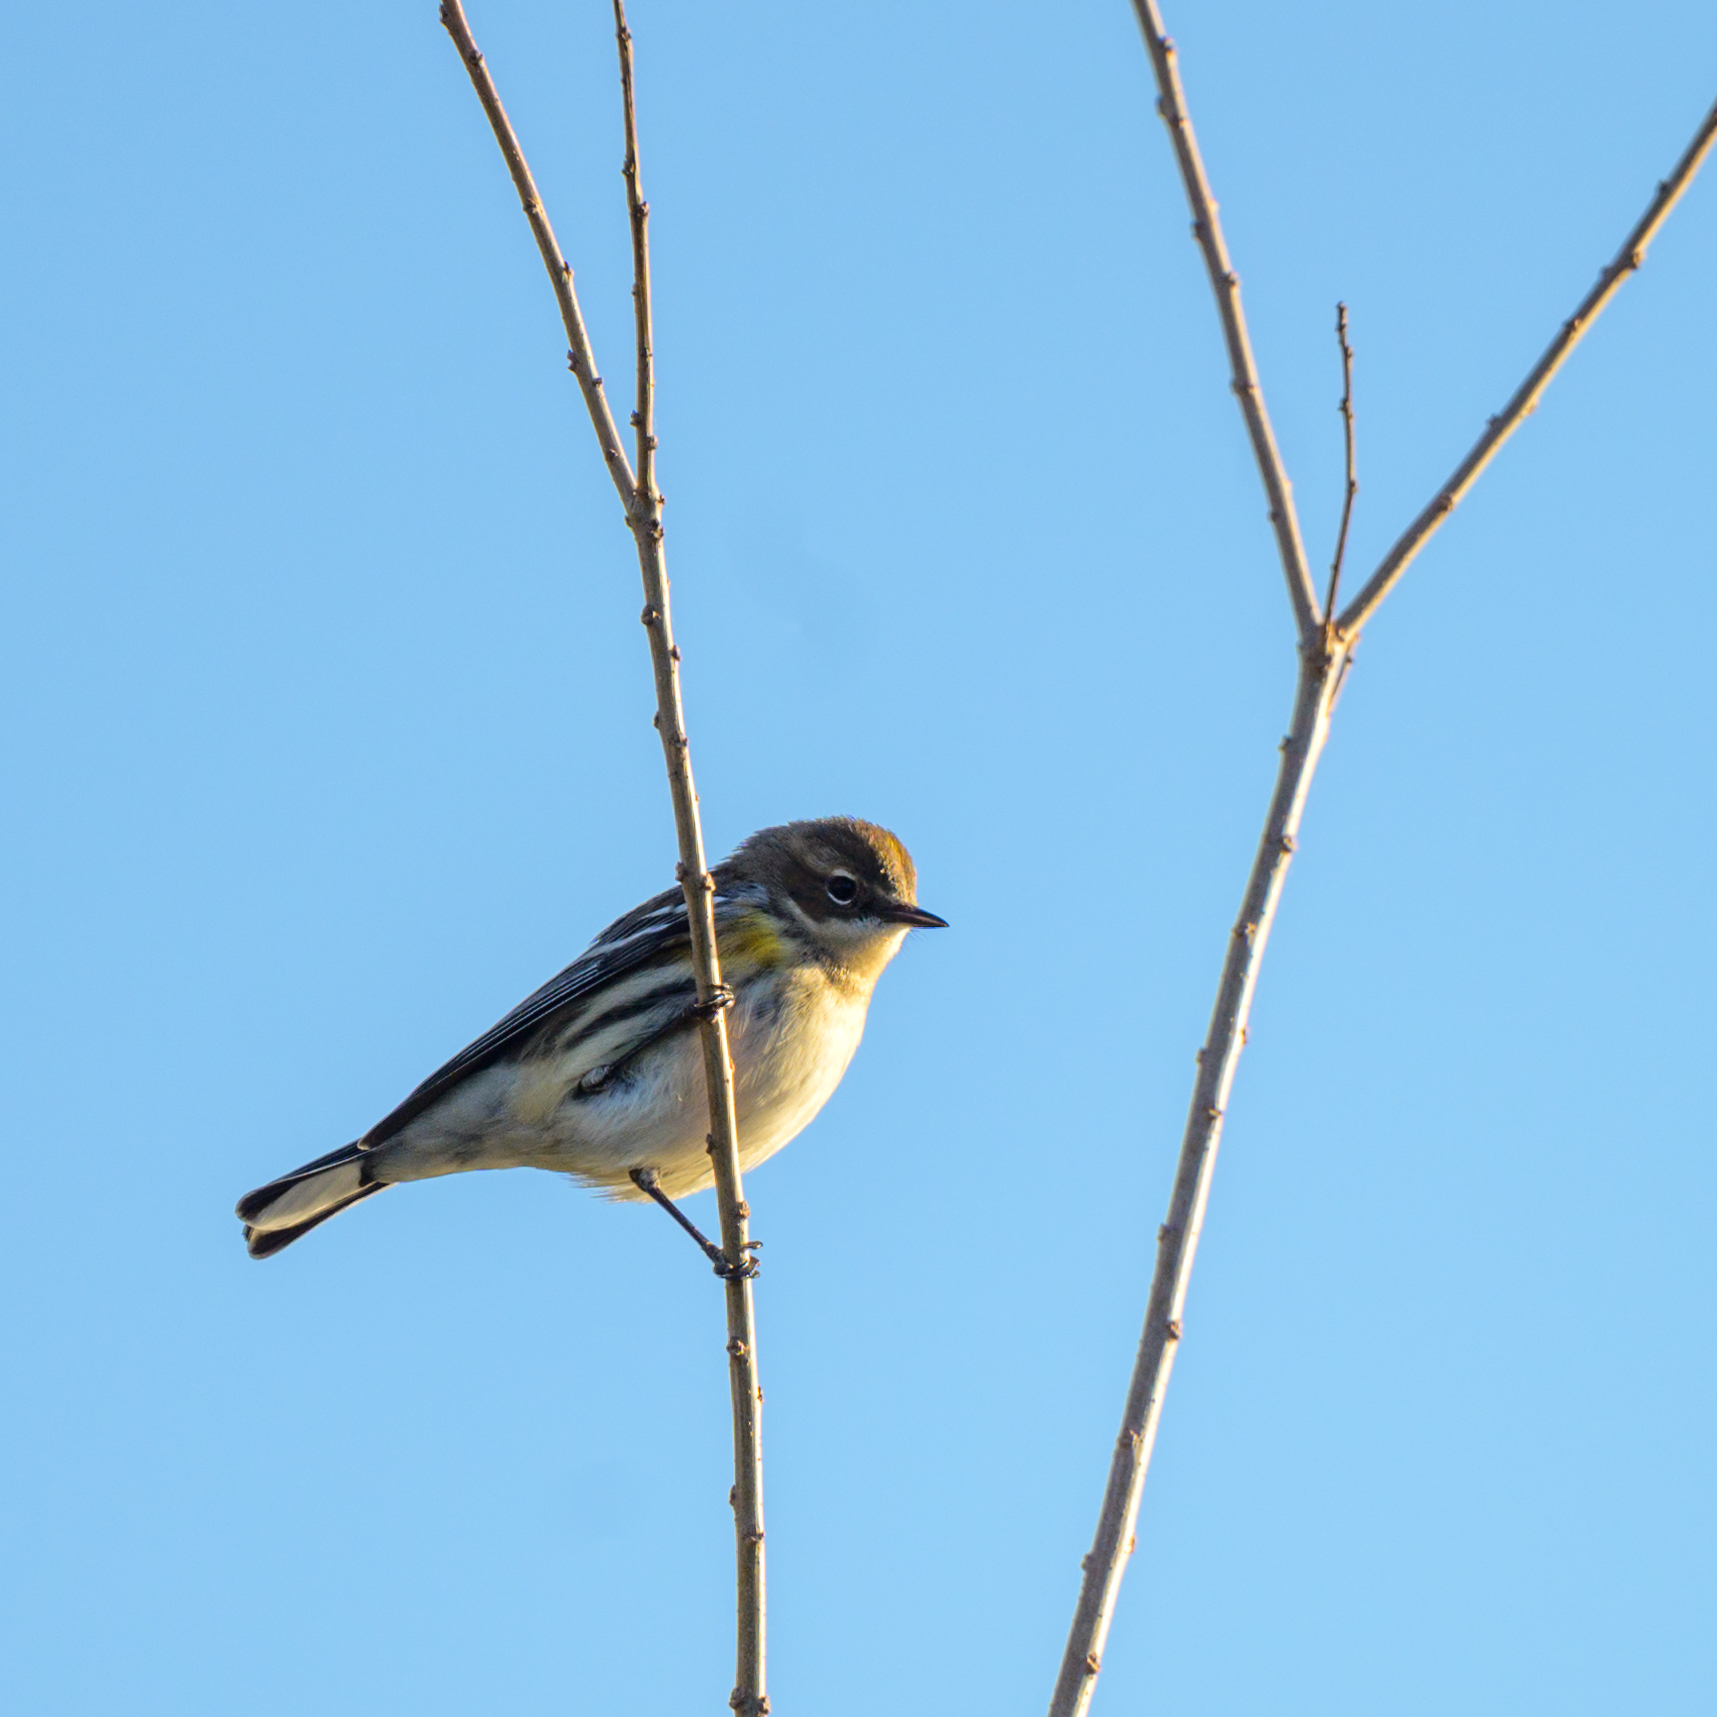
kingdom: Animalia
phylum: Chordata
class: Aves
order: Passeriformes
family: Parulidae
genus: Setophaga
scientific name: Setophaga coronata
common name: Myrtle warbler
